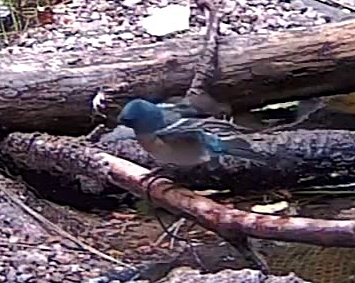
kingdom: Animalia
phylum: Chordata
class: Aves
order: Passeriformes
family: Cardinalidae
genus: Passerina
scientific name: Passerina amoena
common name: Lazuli bunting
